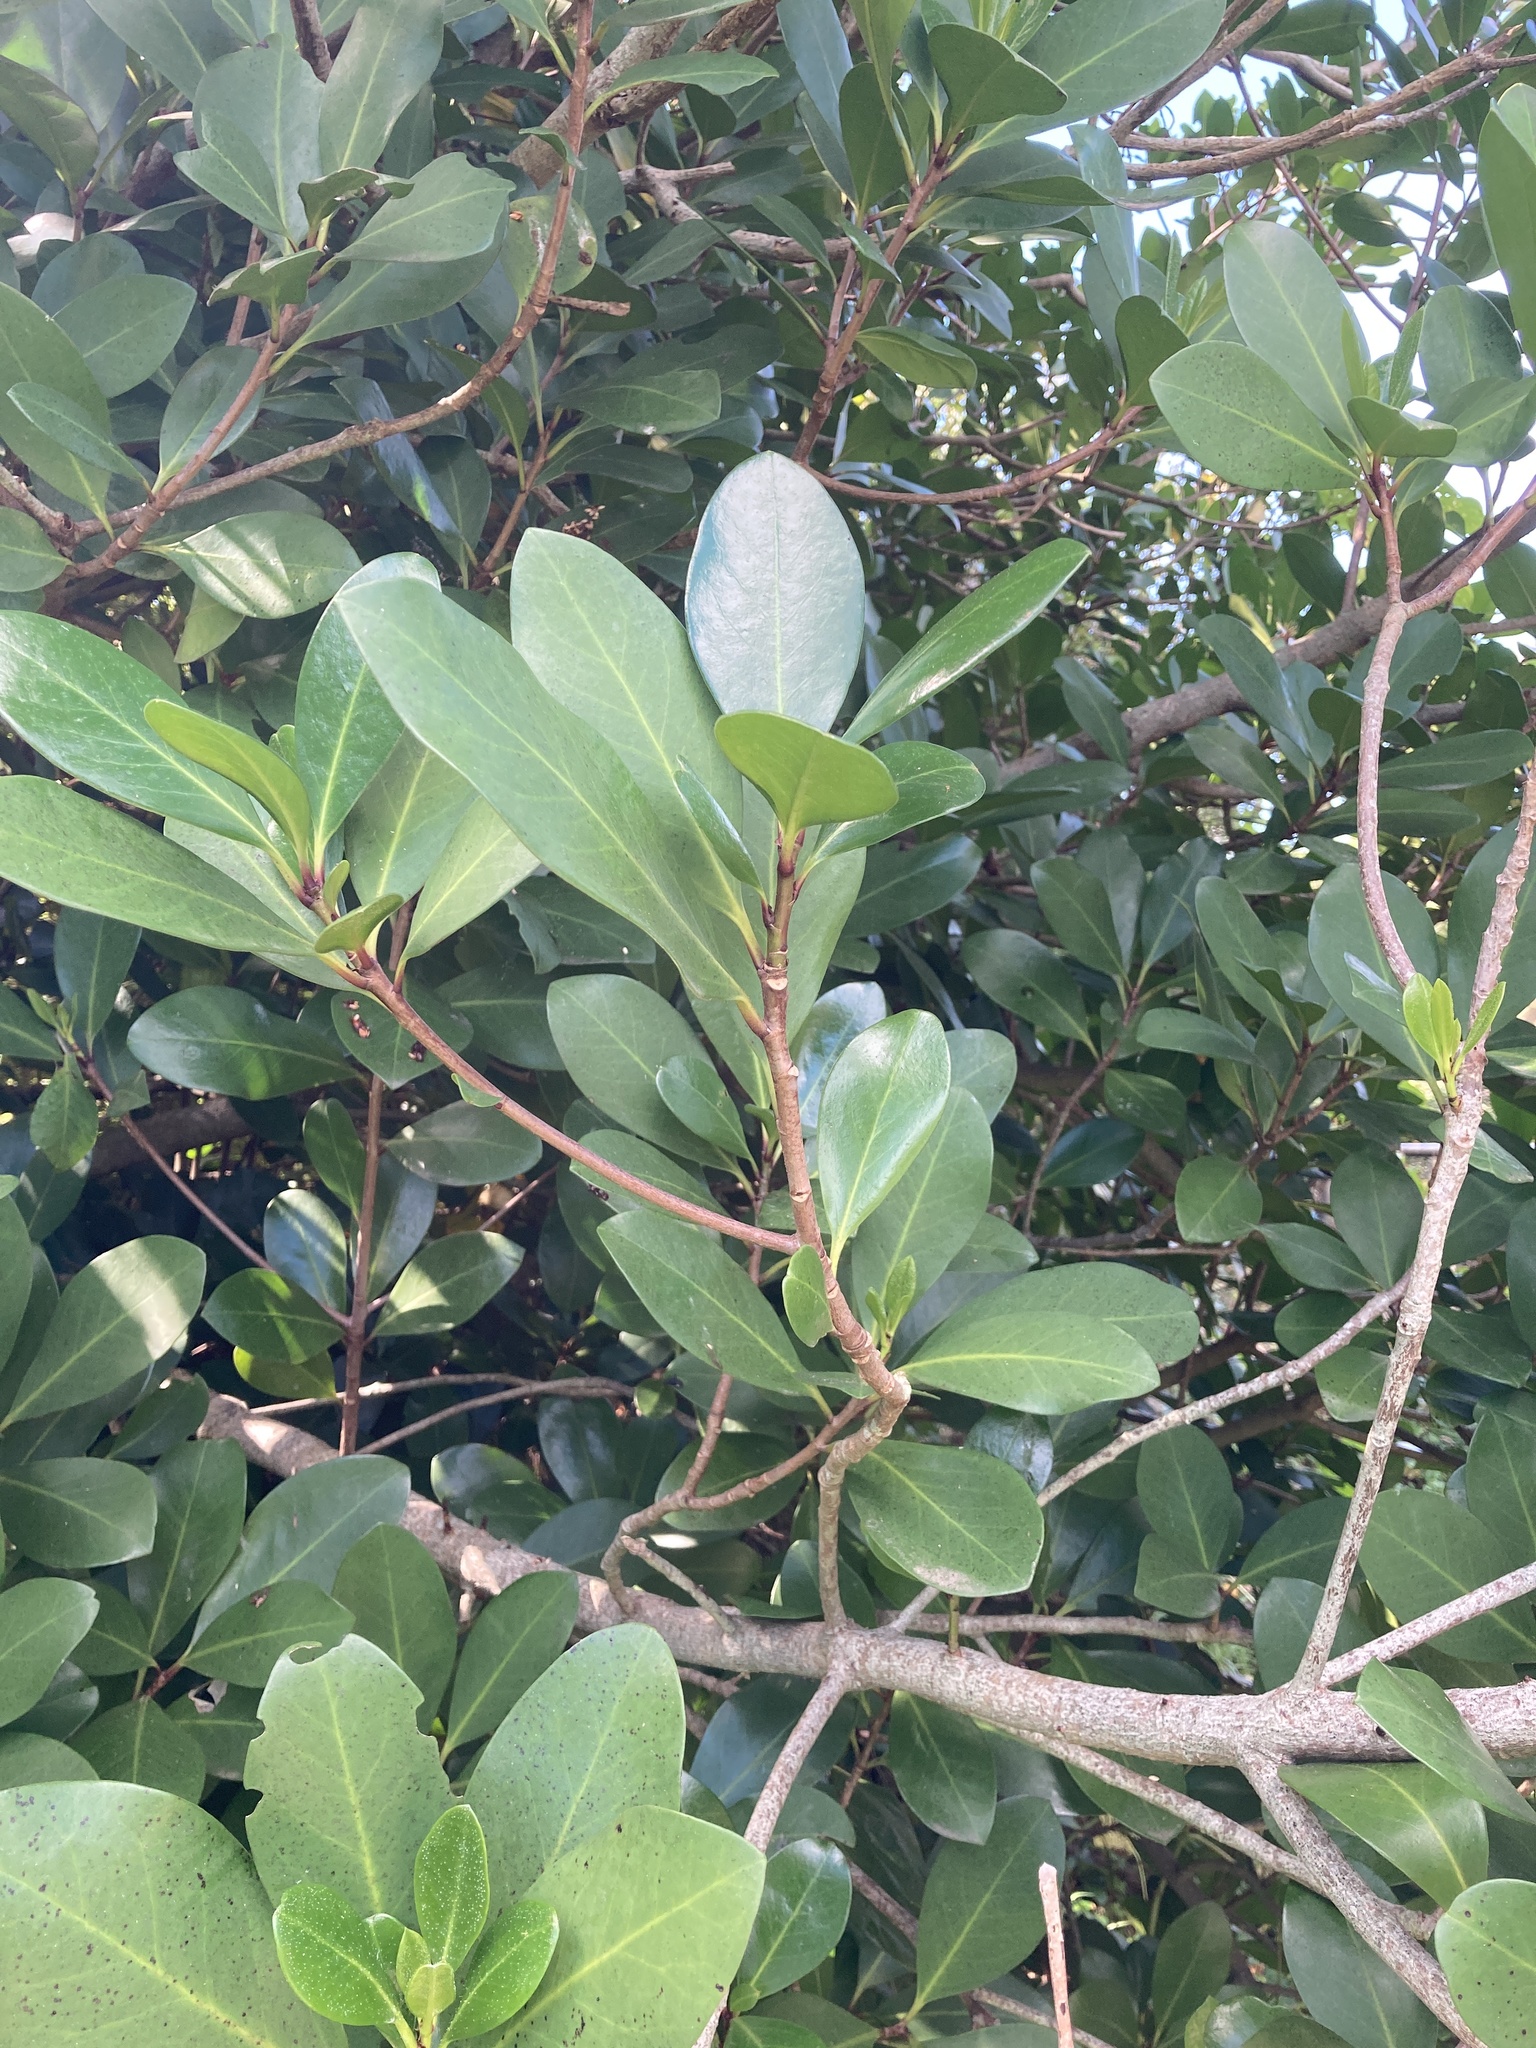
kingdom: Plantae
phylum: Tracheophyta
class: Magnoliopsida
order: Cucurbitales
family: Corynocarpaceae
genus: Corynocarpus
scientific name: Corynocarpus laevigatus
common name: New zealand laurel
